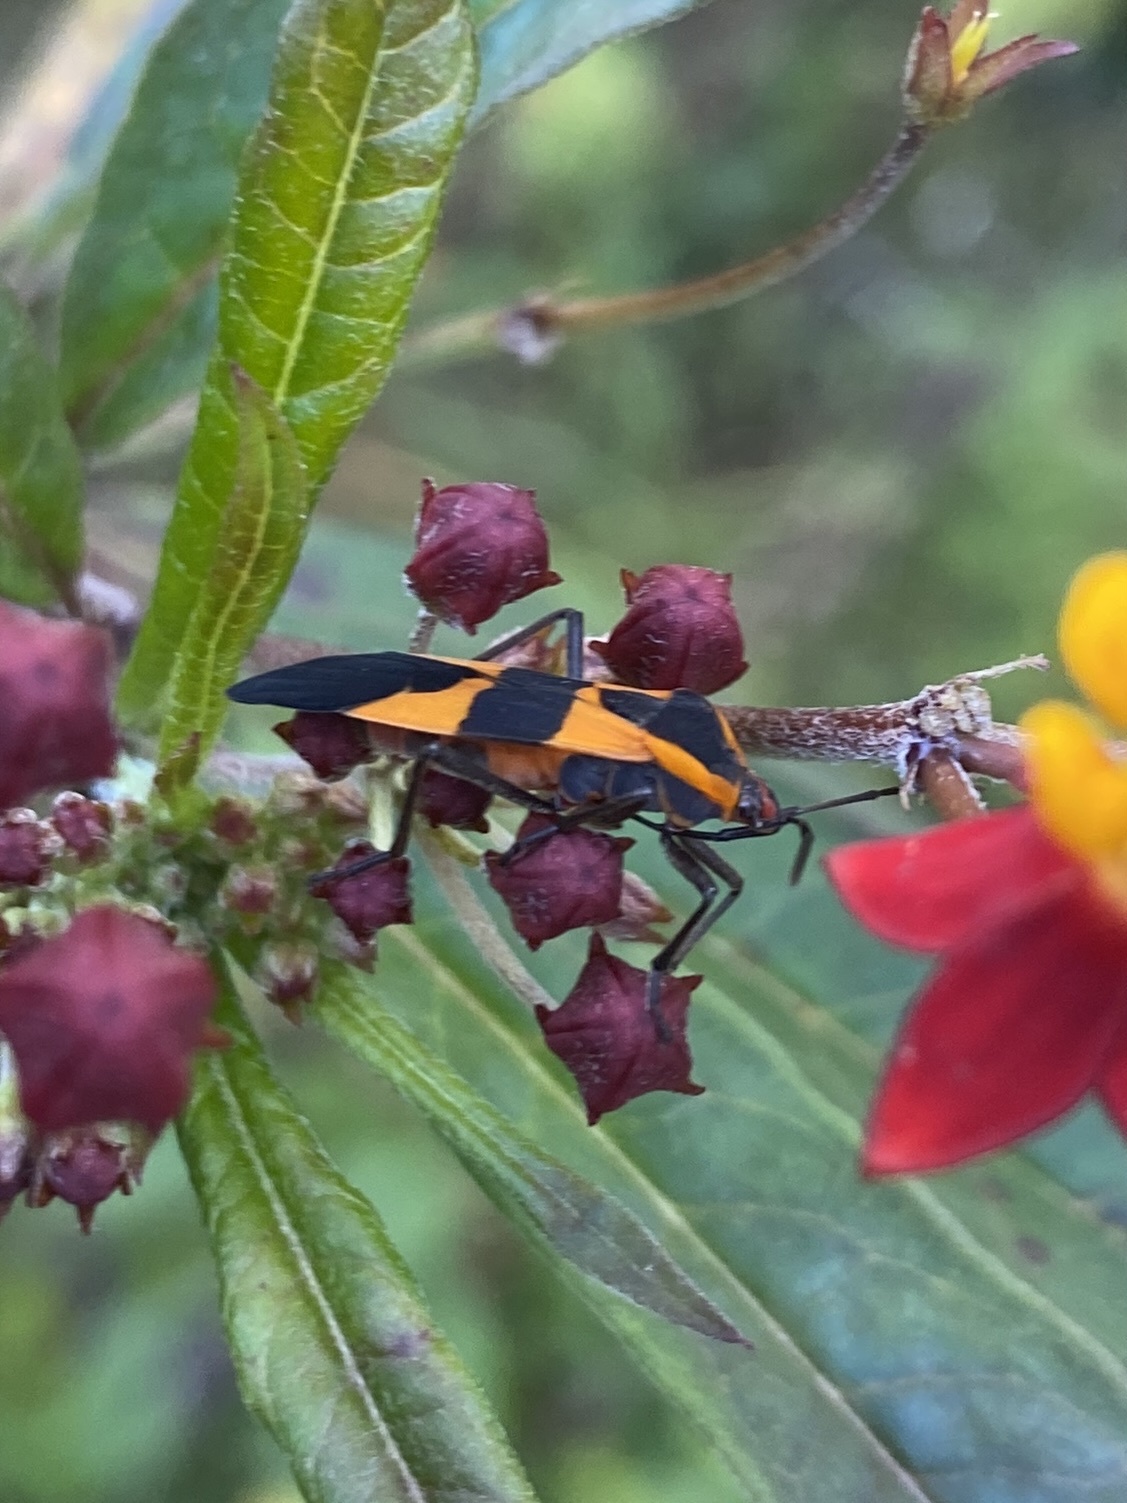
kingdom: Animalia
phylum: Arthropoda
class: Insecta
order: Hemiptera
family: Lygaeidae
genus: Oncopeltus
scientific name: Oncopeltus fasciatus
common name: Large milkweed bug
